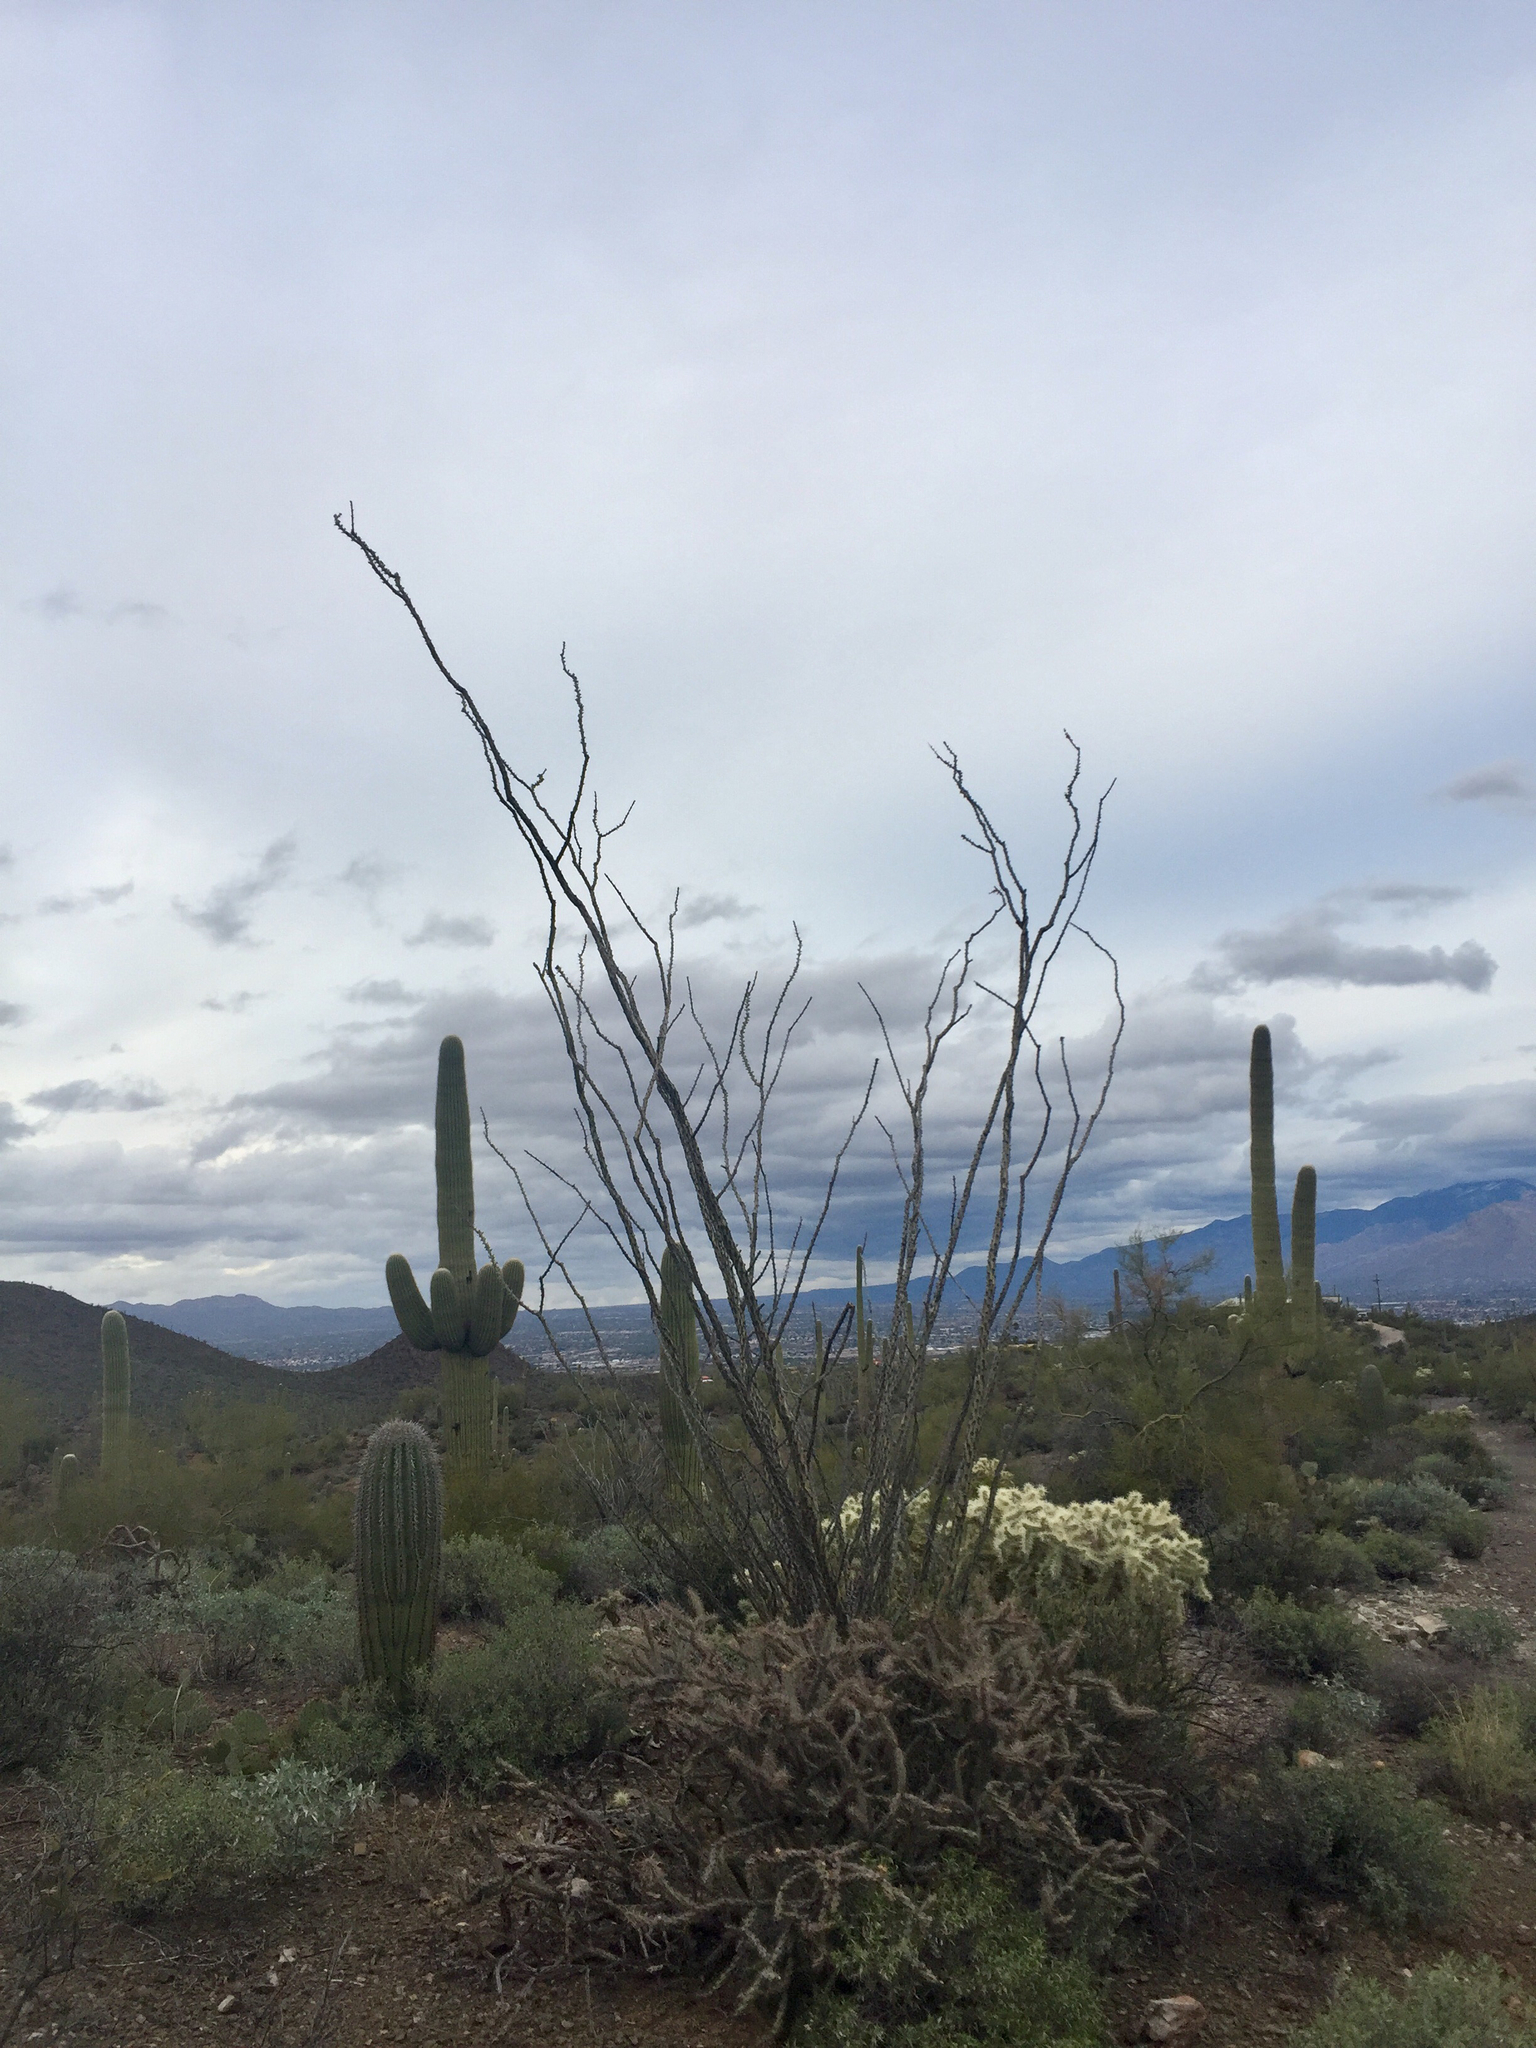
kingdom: Plantae
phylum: Tracheophyta
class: Magnoliopsida
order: Ericales
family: Fouquieriaceae
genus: Fouquieria
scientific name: Fouquieria splendens
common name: Vine-cactus
